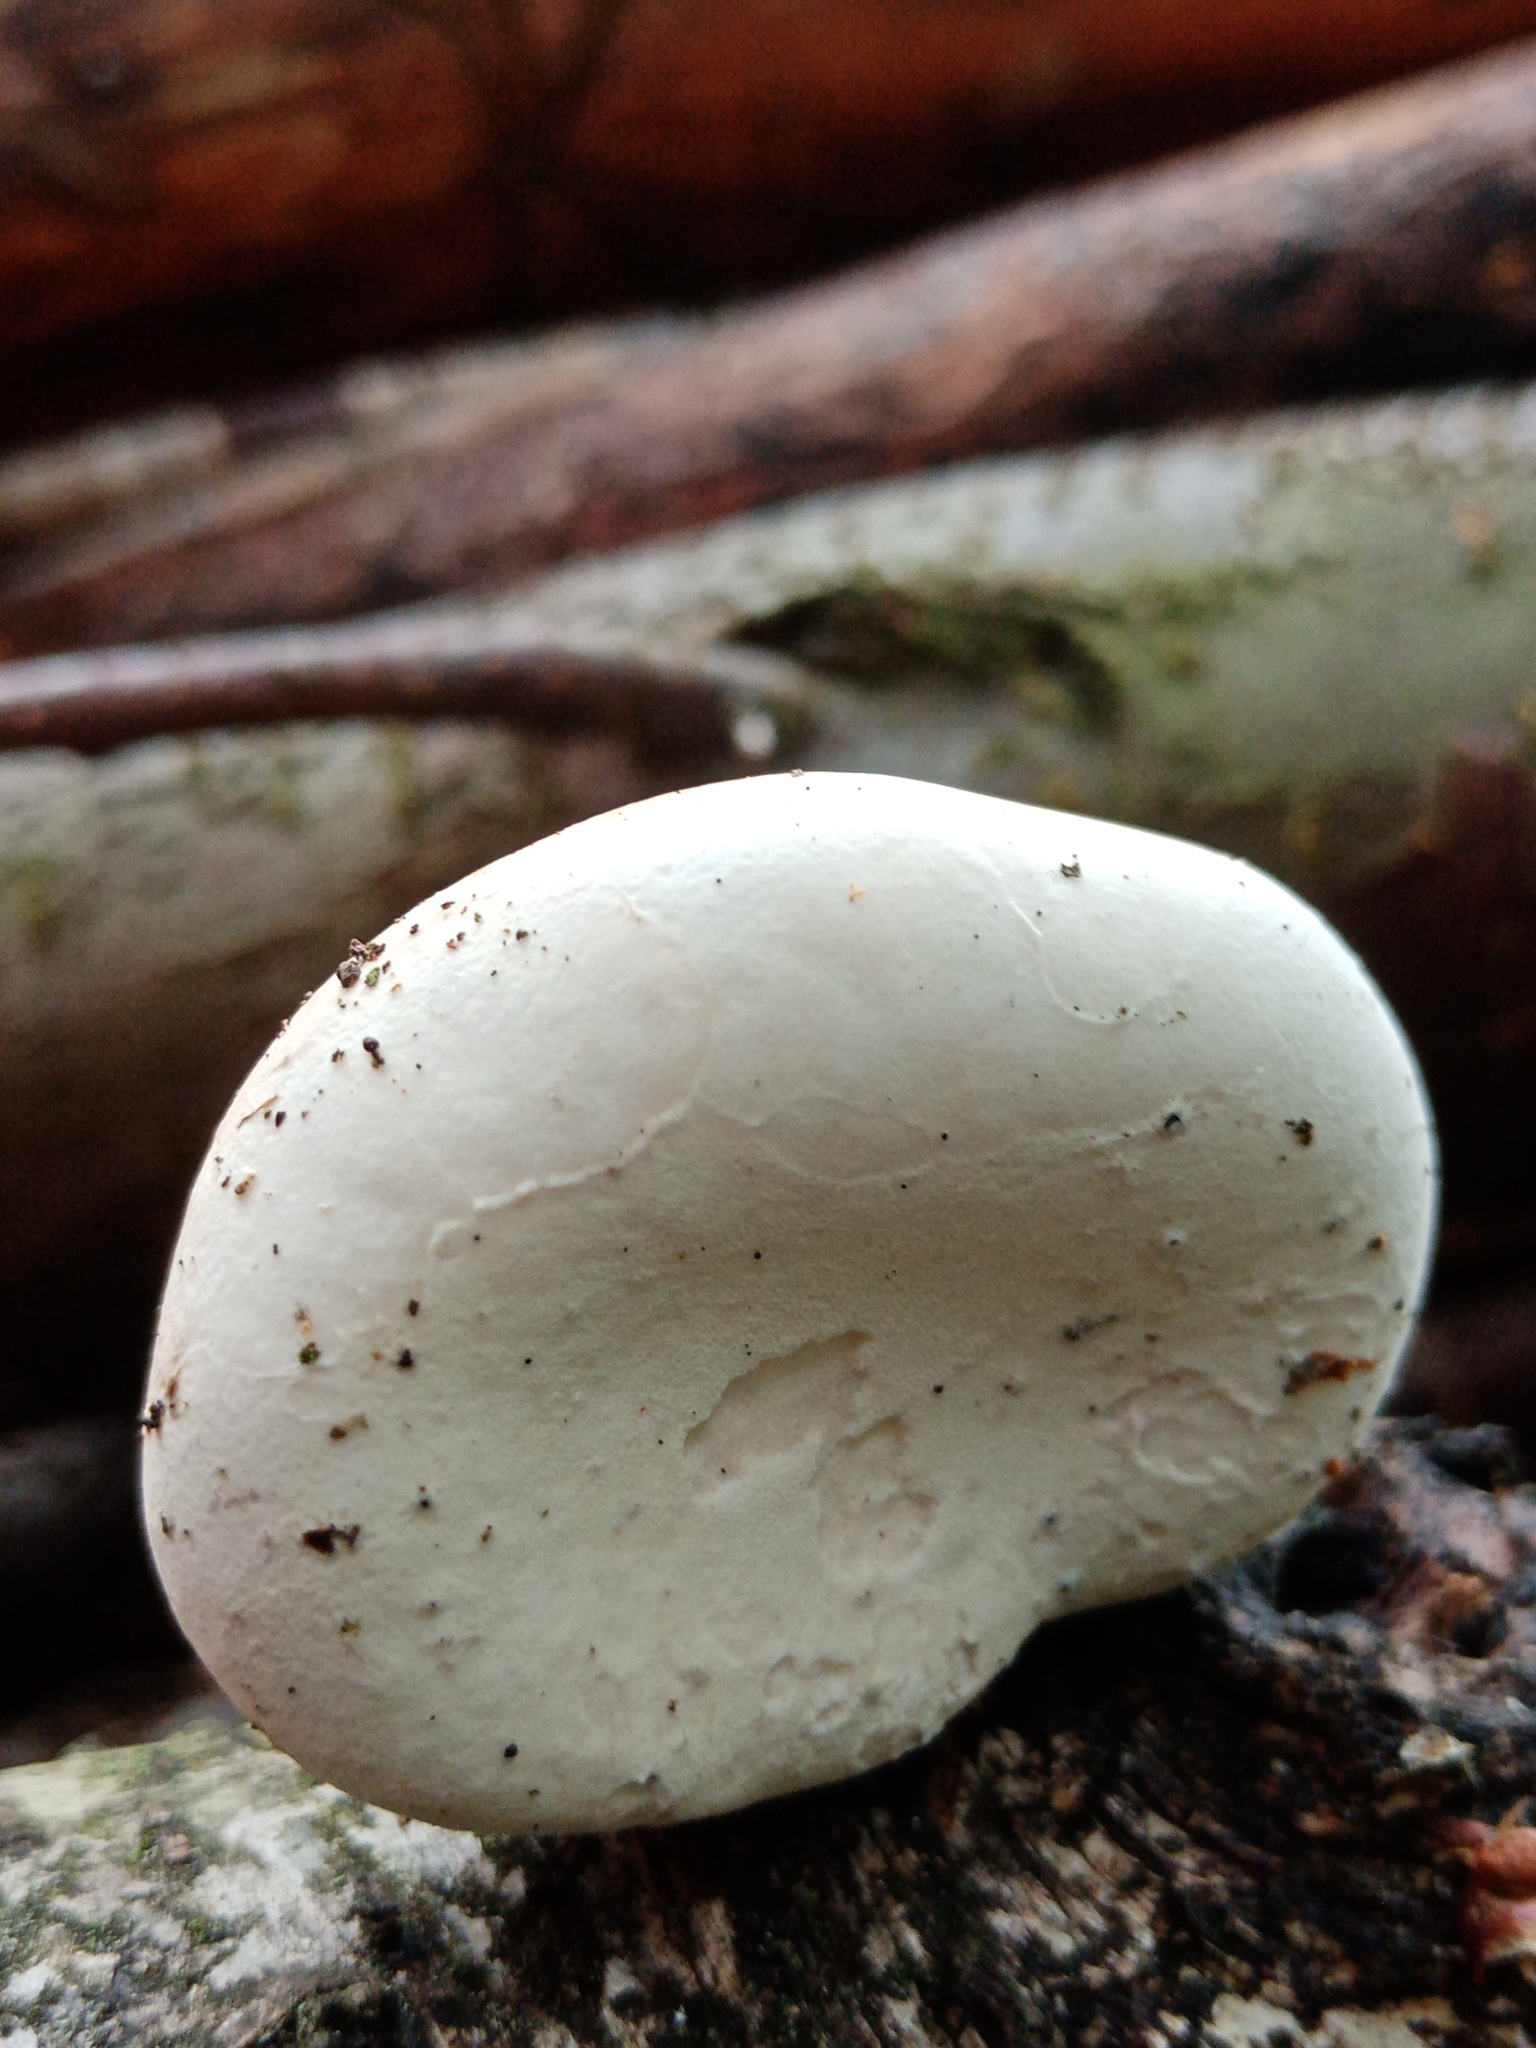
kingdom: Fungi
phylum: Basidiomycota
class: Agaricomycetes
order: Polyporales
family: Fomitopsidaceae
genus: Fomitopsis
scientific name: Fomitopsis betulina
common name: Birch polypore
